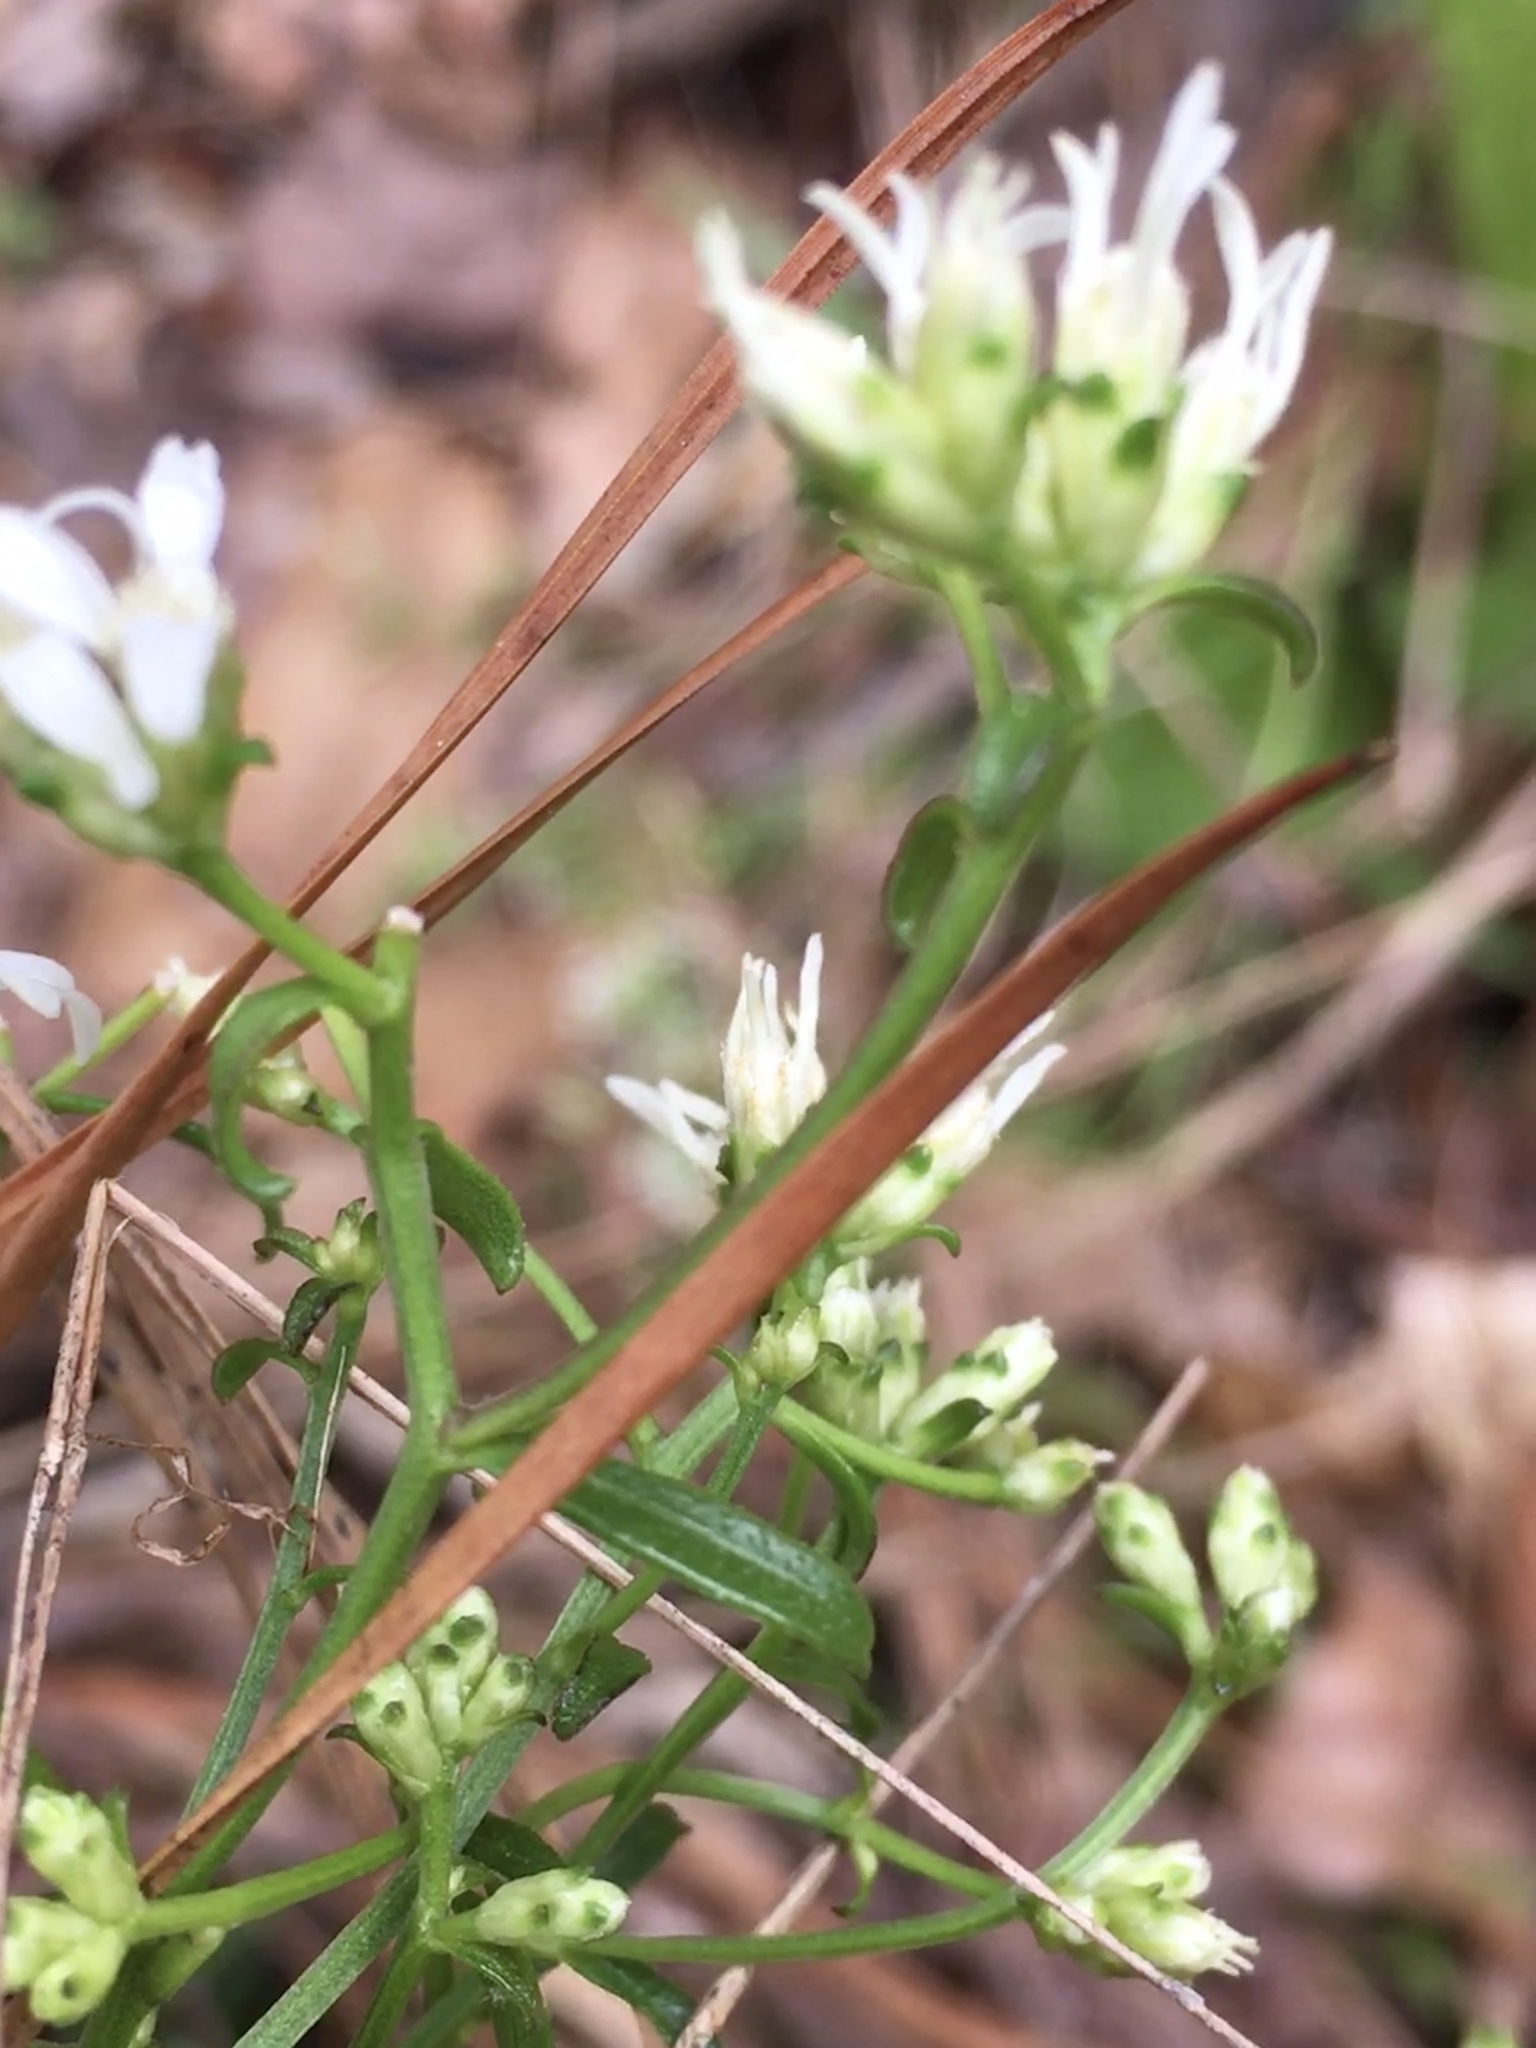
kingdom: Plantae
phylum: Tracheophyta
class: Magnoliopsida
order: Asterales
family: Asteraceae
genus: Sericocarpus
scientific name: Sericocarpus linifolius
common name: Narrow-leaf aster
